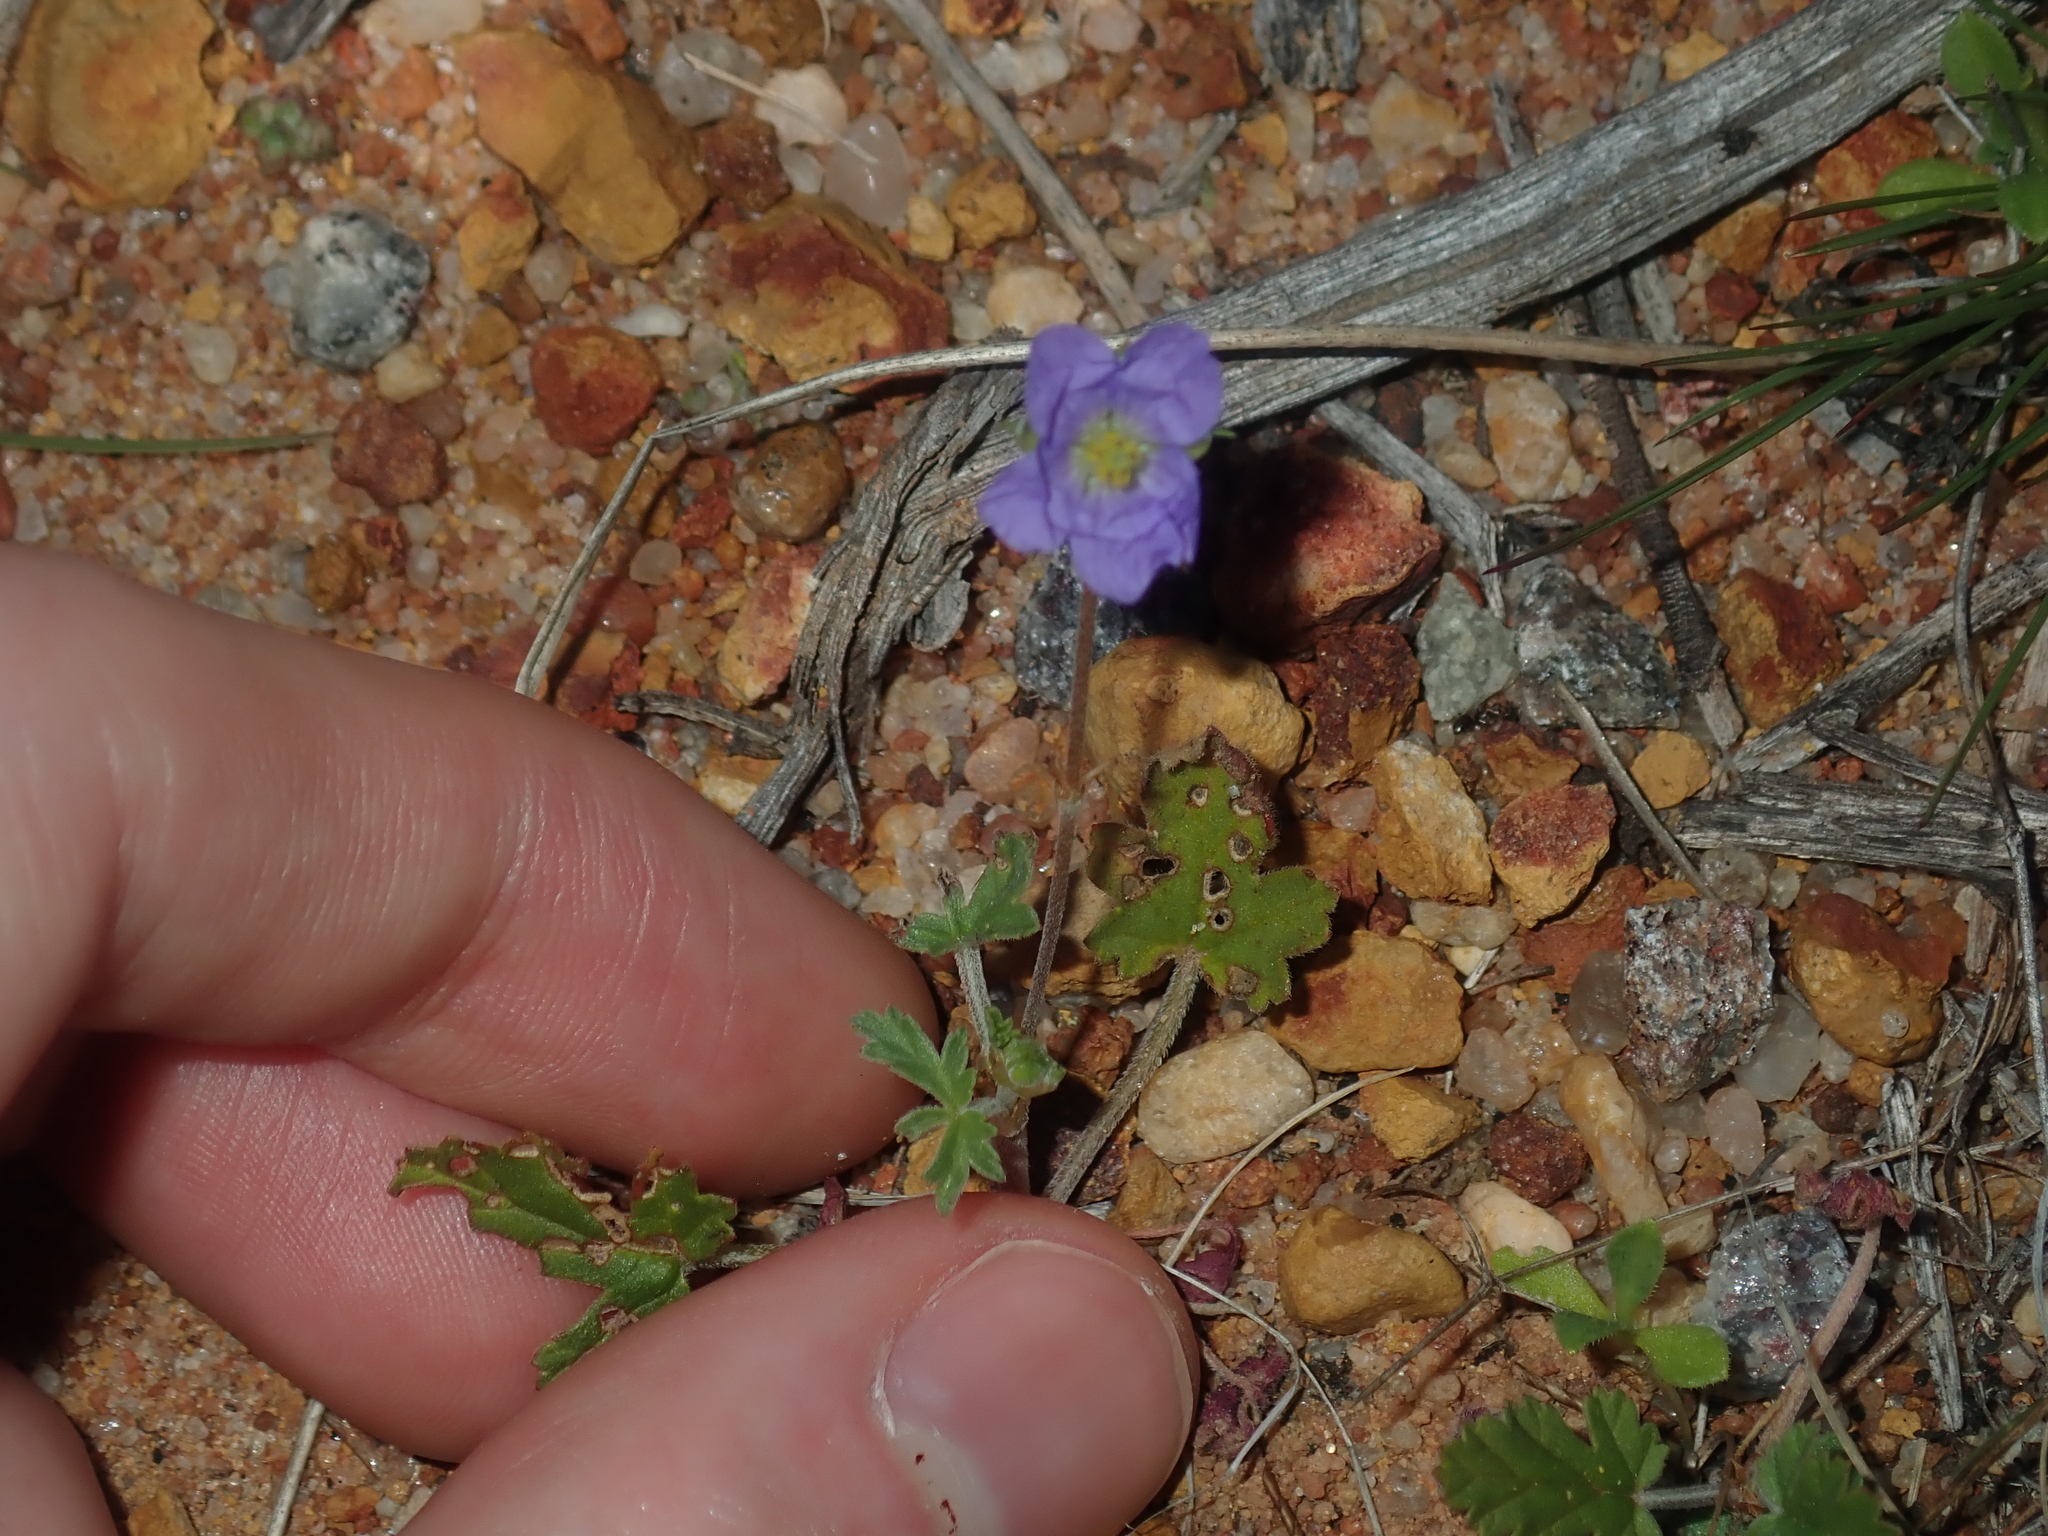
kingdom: Plantae
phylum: Tracheophyta
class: Magnoliopsida
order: Geraniales
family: Geraniaceae
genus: Erodium
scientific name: Erodium cygnorum
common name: Western stork's-bill
